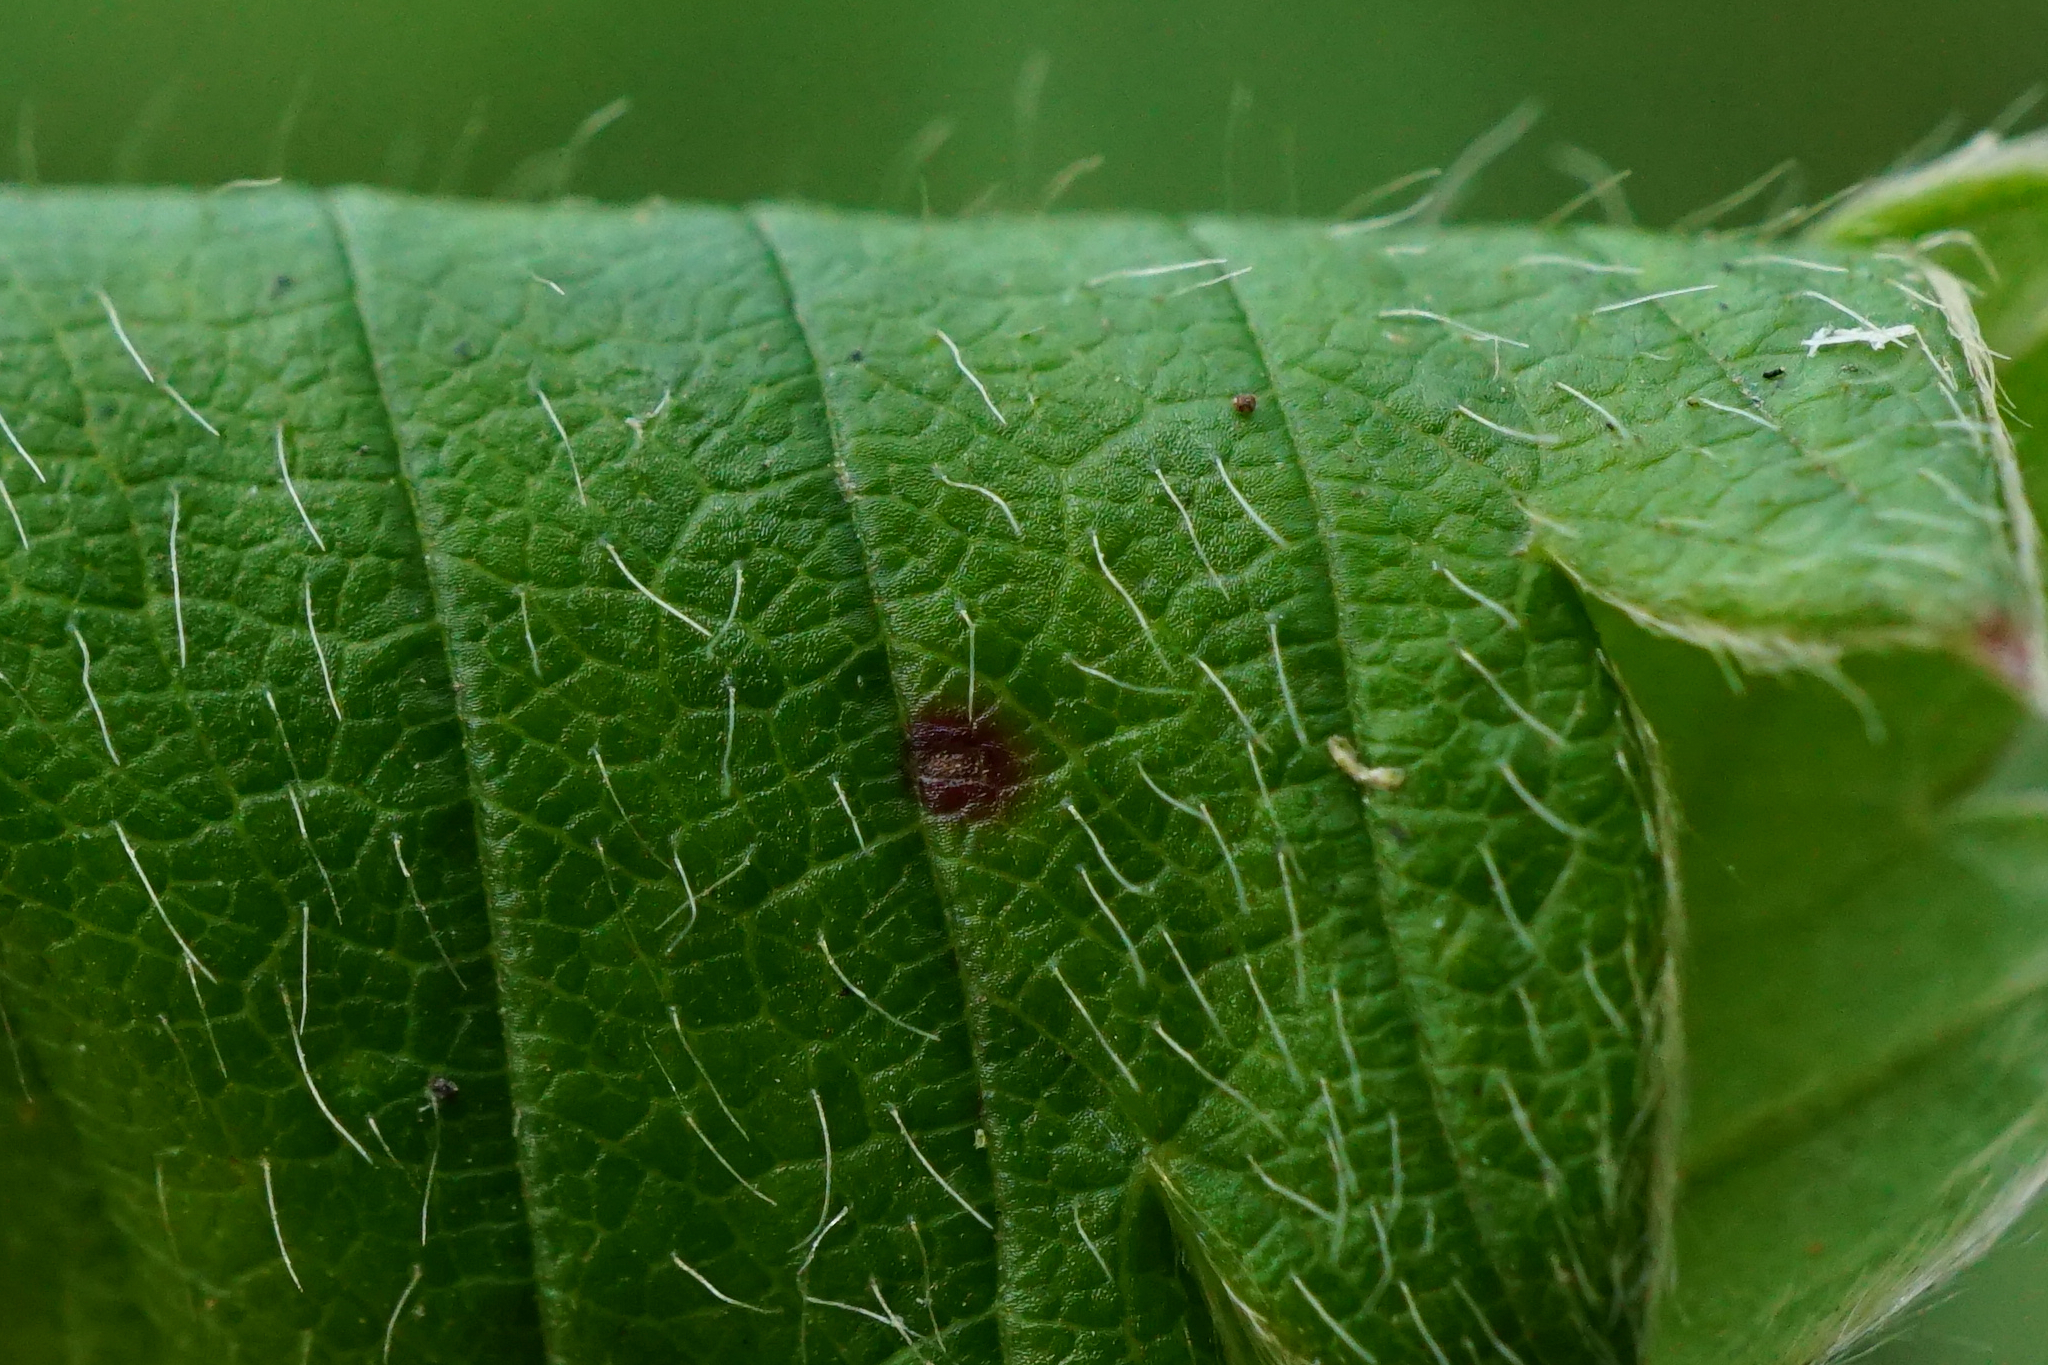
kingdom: Plantae
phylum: Tracheophyta
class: Magnoliopsida
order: Rosales
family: Rosaceae
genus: Fragaria
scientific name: Fragaria viridis
